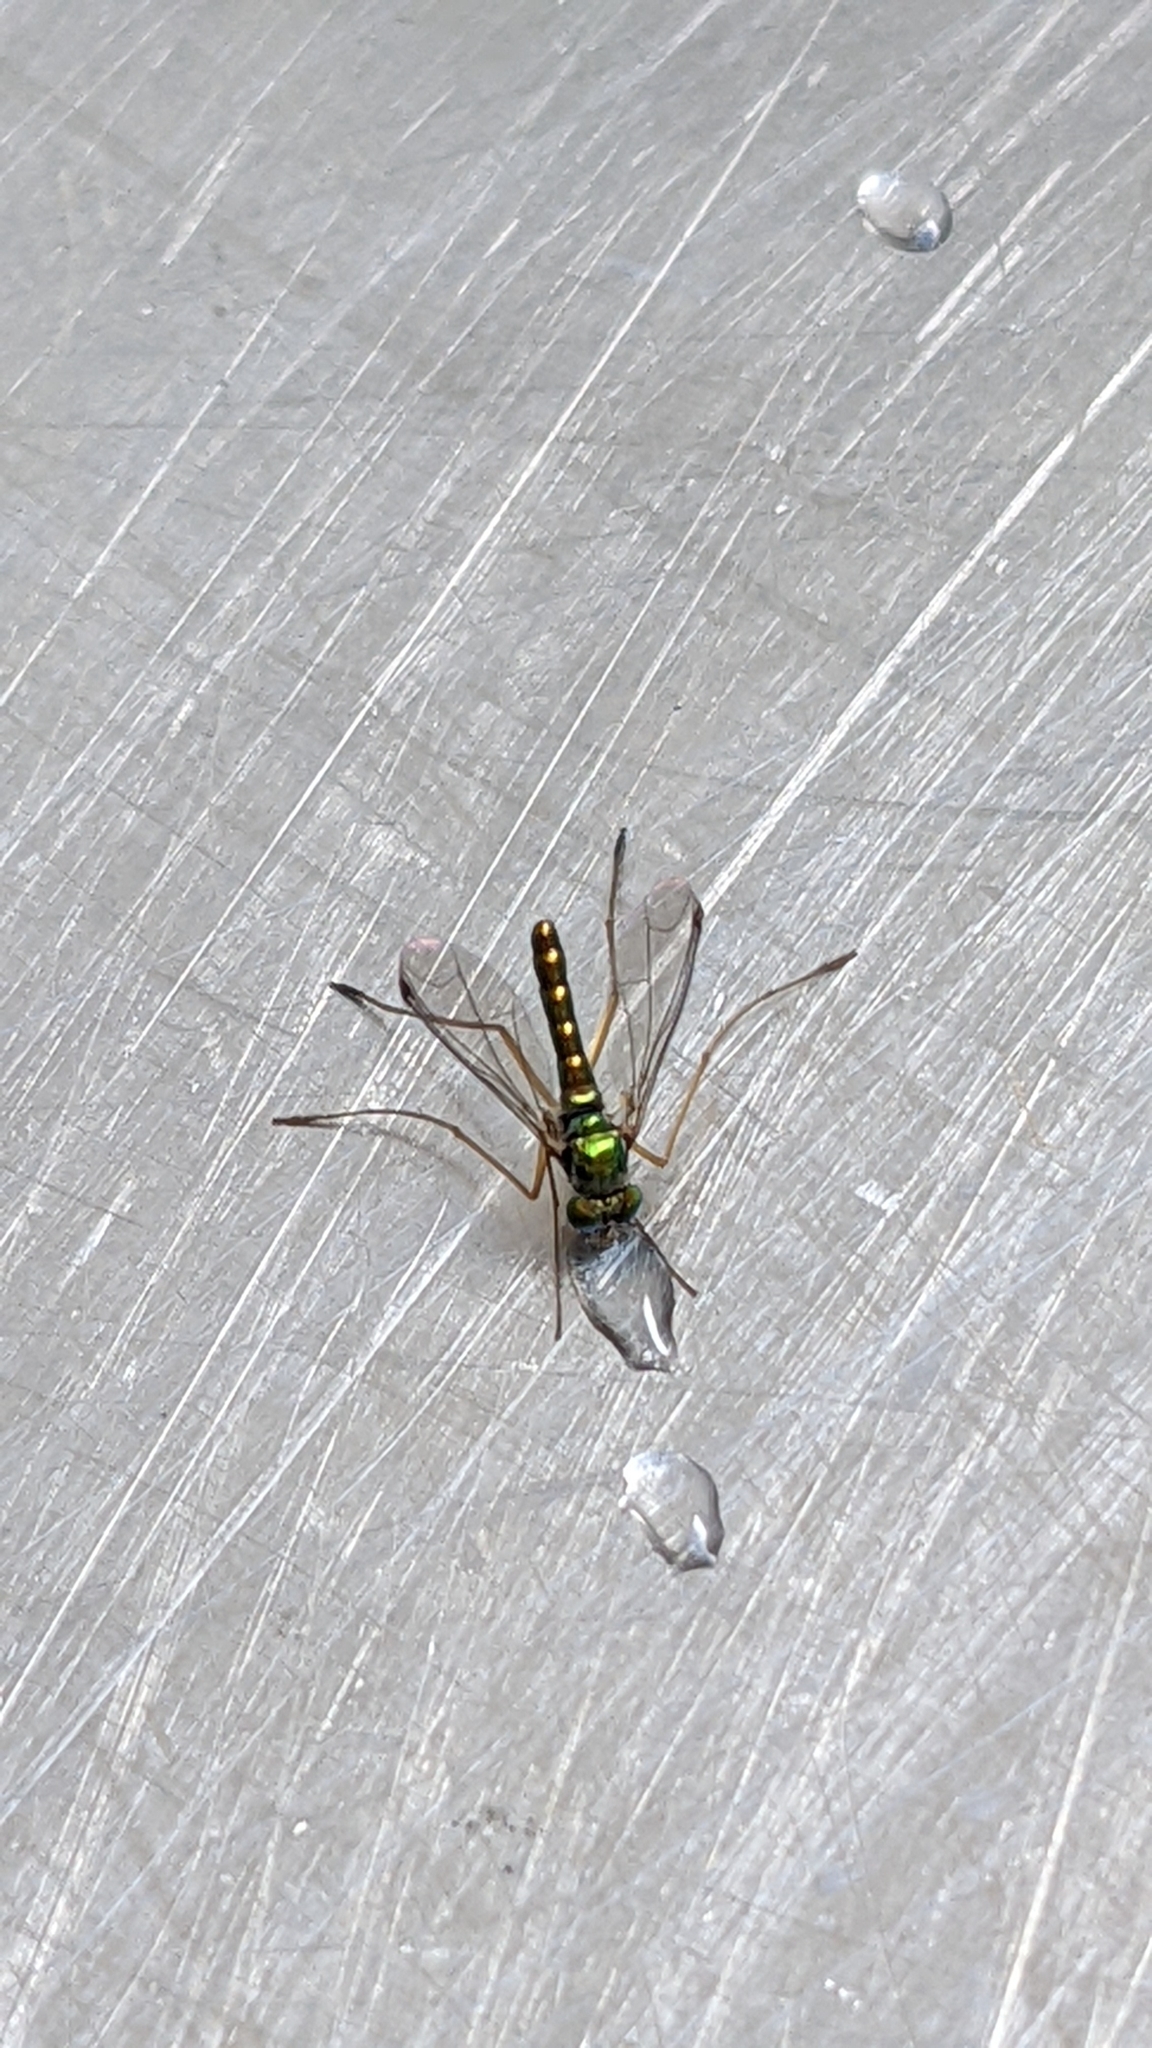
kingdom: Animalia
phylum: Arthropoda
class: Insecta
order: Diptera
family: Dolichopodidae
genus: Parentia
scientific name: Parentia anomalicosta
